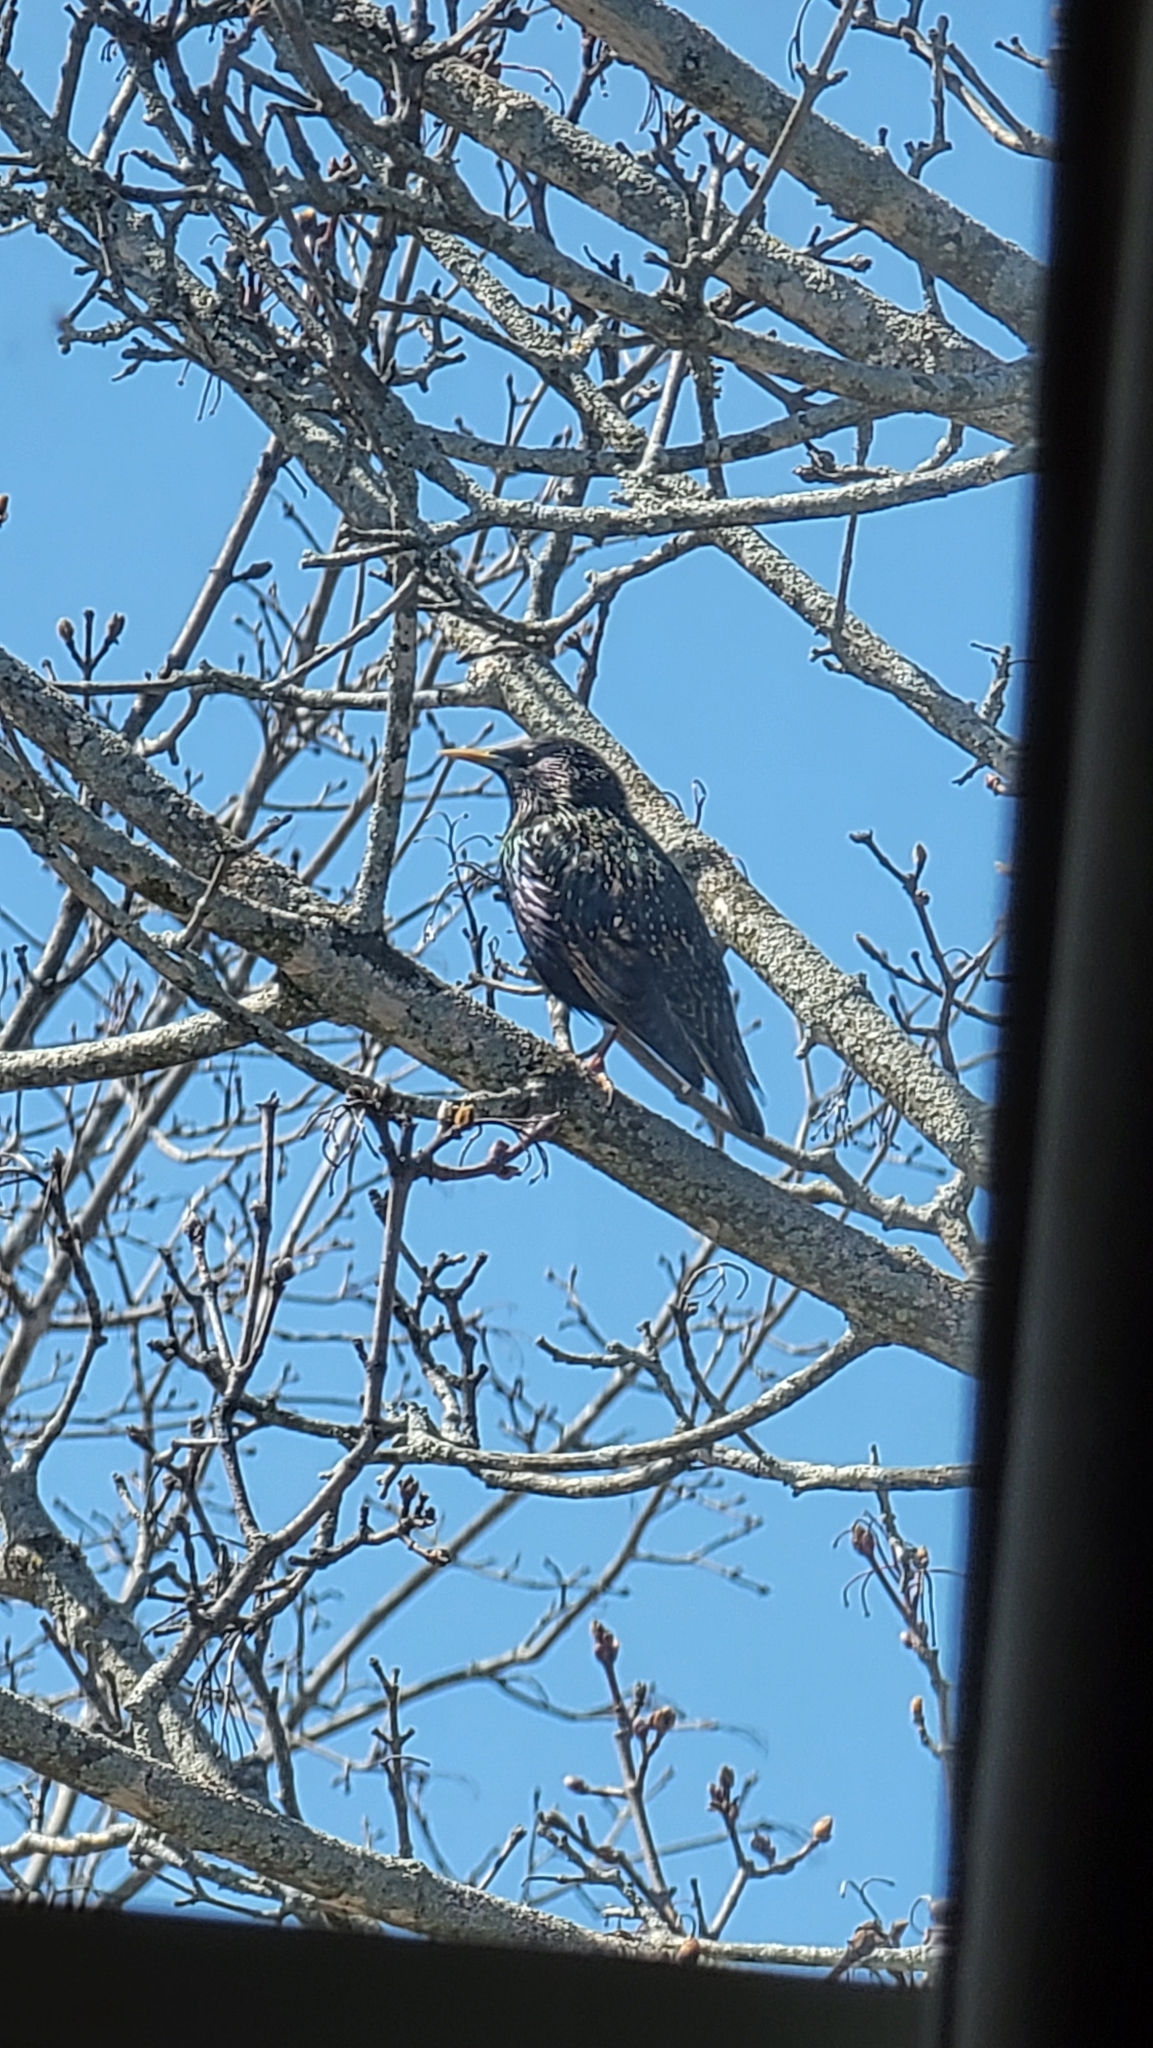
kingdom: Animalia
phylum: Chordata
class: Aves
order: Passeriformes
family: Sturnidae
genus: Sturnus
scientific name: Sturnus vulgaris
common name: Common starling
